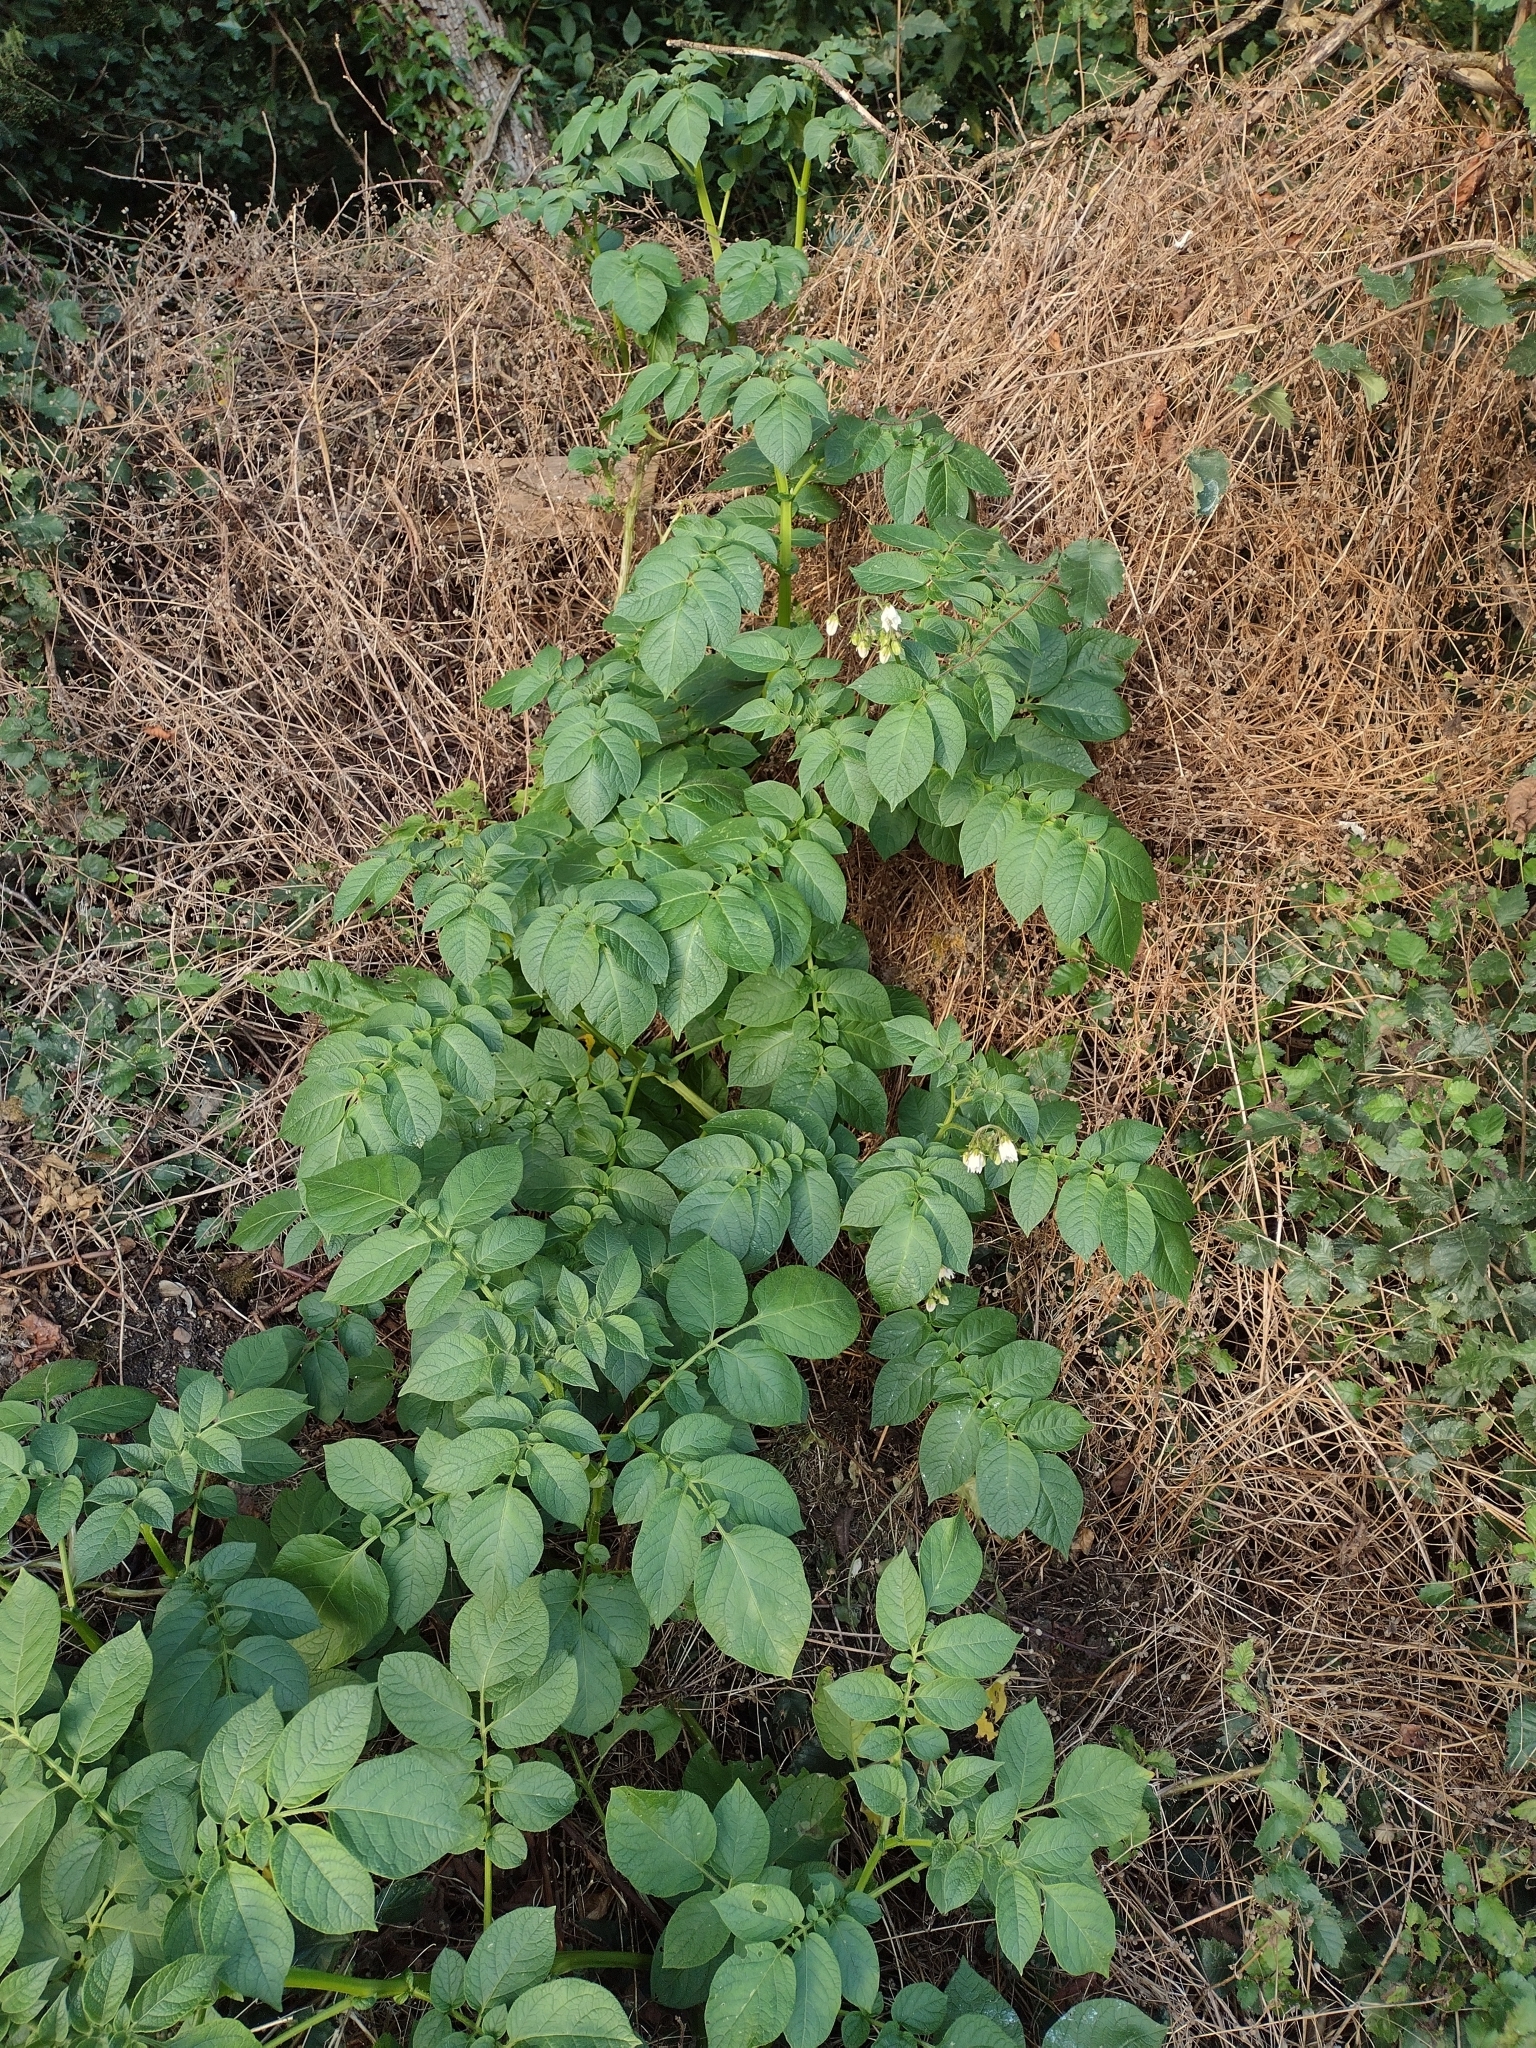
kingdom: Plantae
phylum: Tracheophyta
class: Magnoliopsida
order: Solanales
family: Solanaceae
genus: Solanum
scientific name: Solanum tuberosum
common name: Potato
